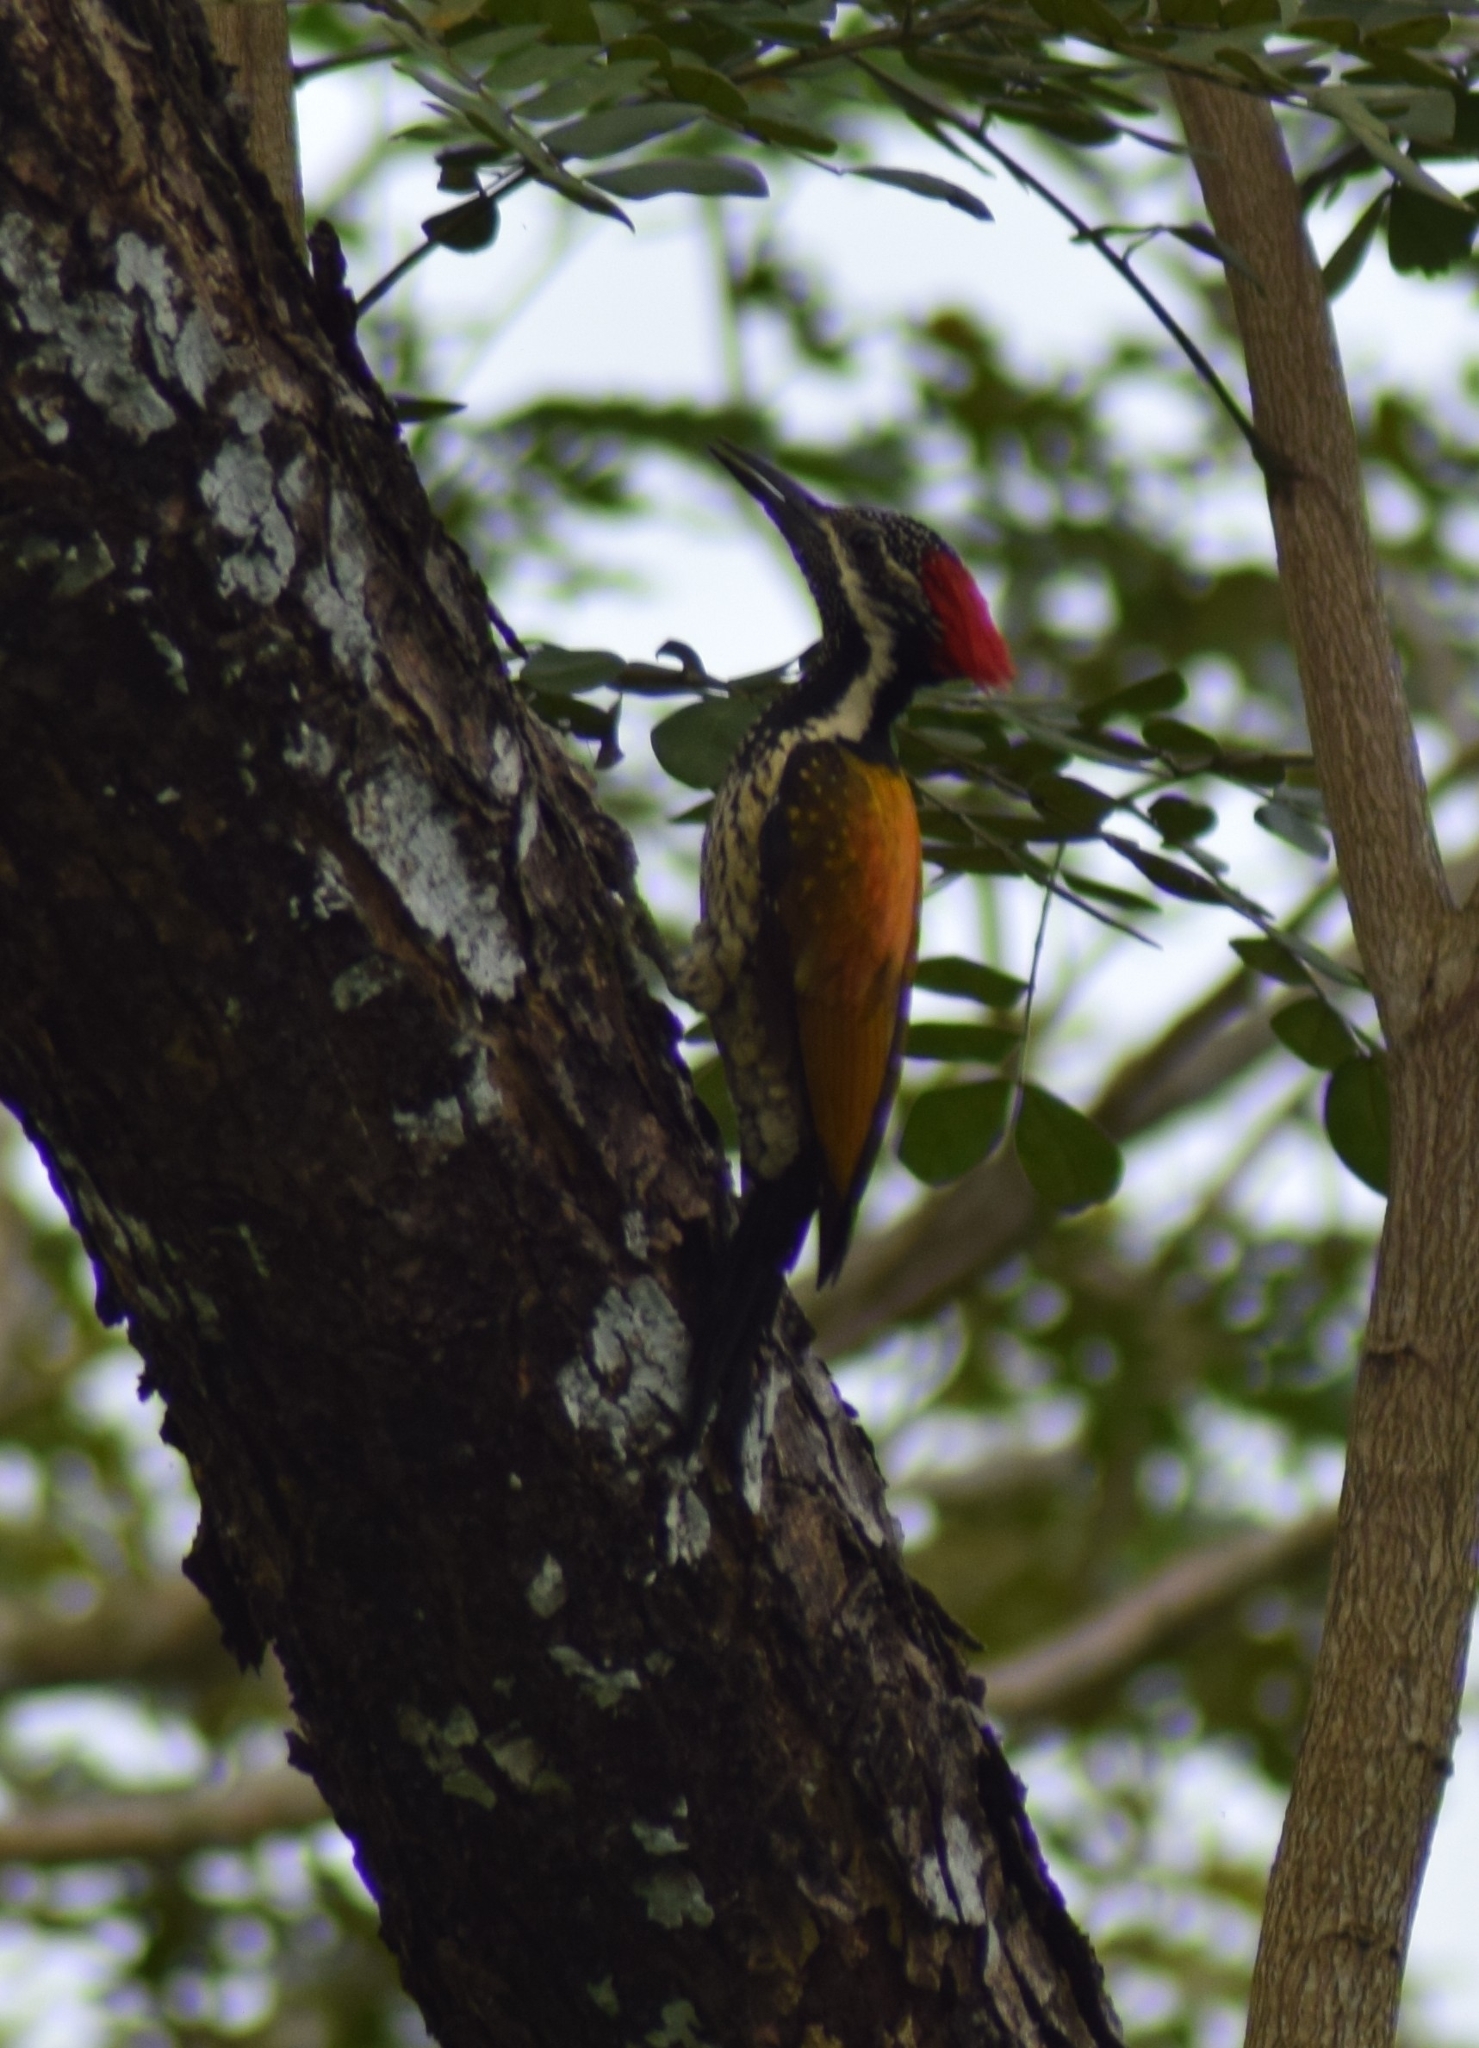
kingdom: Animalia
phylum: Chordata
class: Aves
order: Piciformes
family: Picidae
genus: Dinopium
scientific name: Dinopium benghalense
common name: Black-rumped flameback
